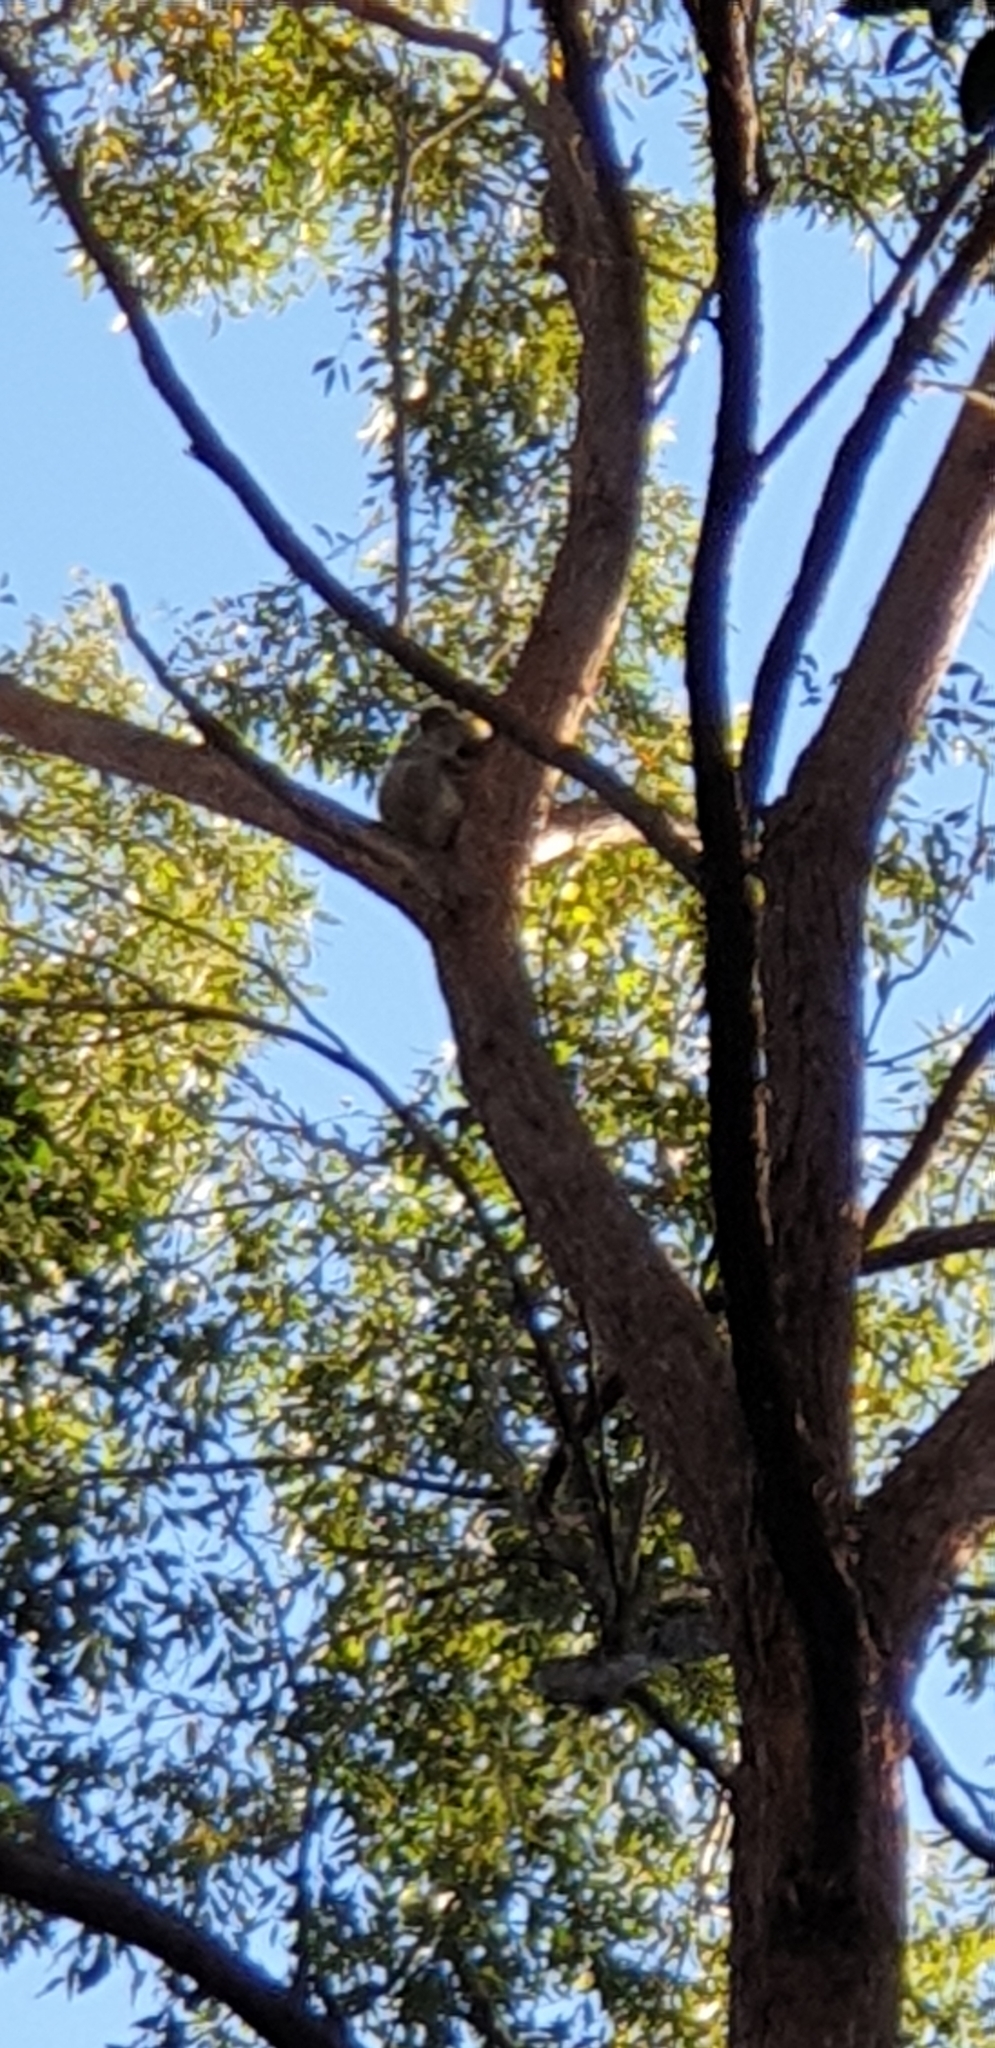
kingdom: Animalia
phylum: Chordata
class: Mammalia
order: Diprotodontia
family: Phascolarctidae
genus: Phascolarctos
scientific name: Phascolarctos cinereus
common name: Koala
